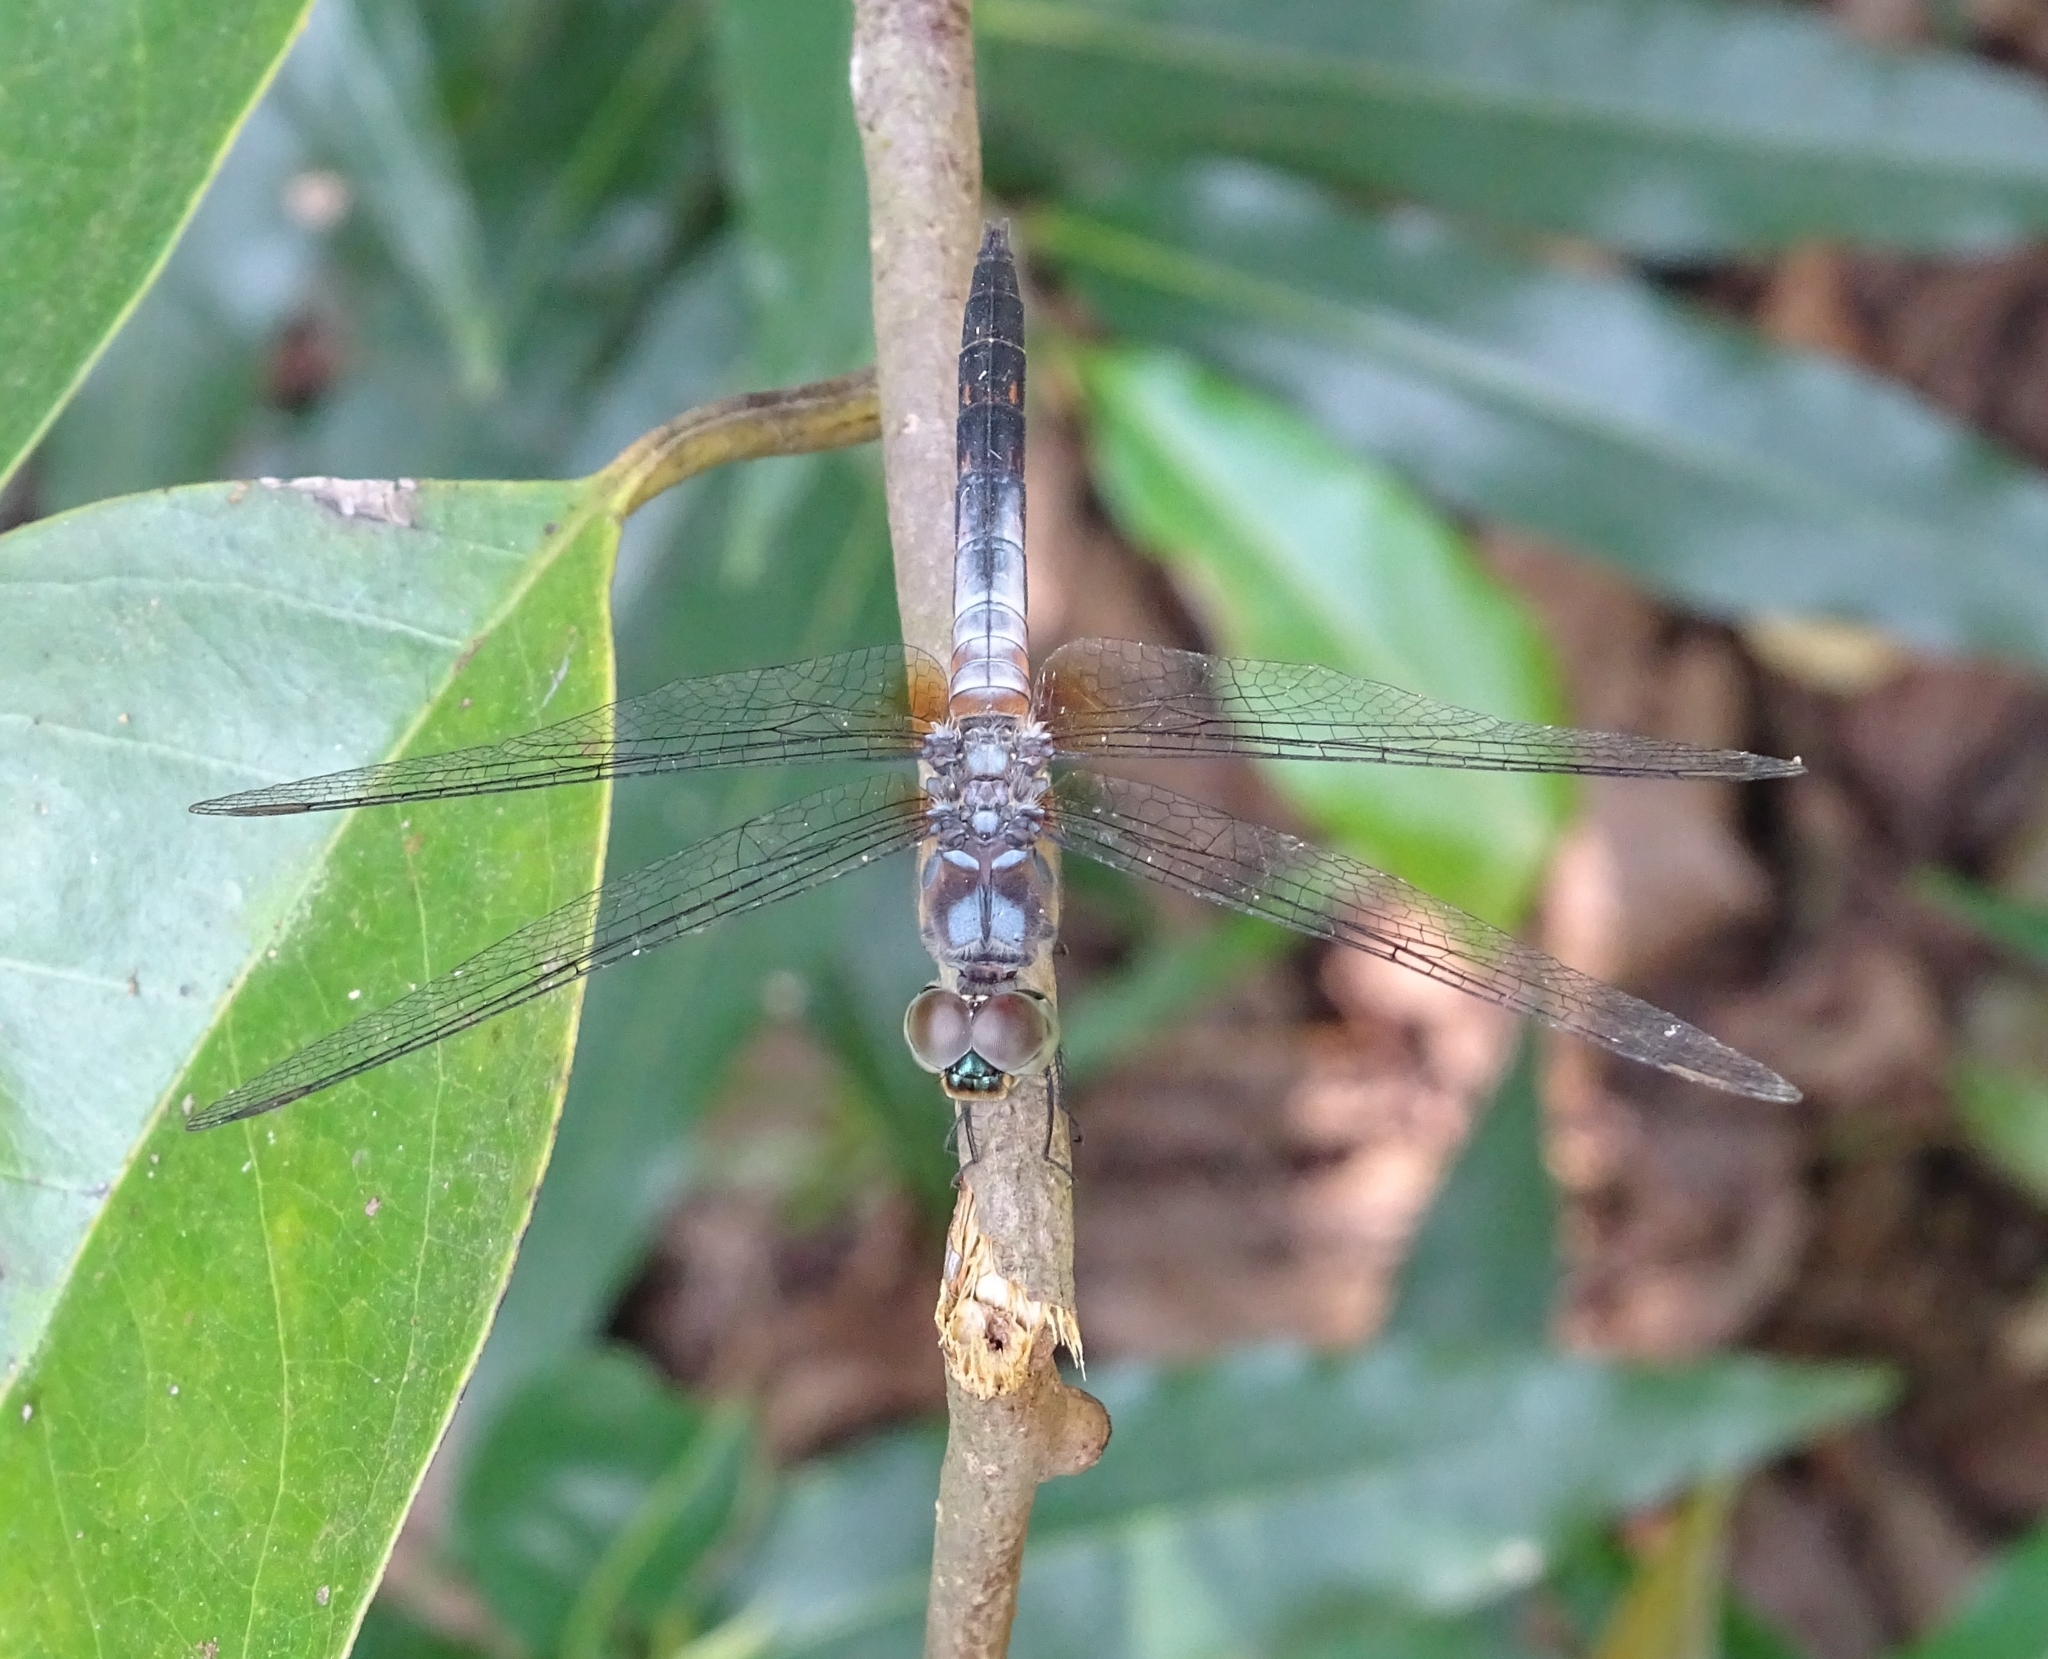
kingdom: Animalia
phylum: Arthropoda
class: Insecta
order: Odonata
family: Libellulidae
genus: Brachydiplax
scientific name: Brachydiplax chalybea
